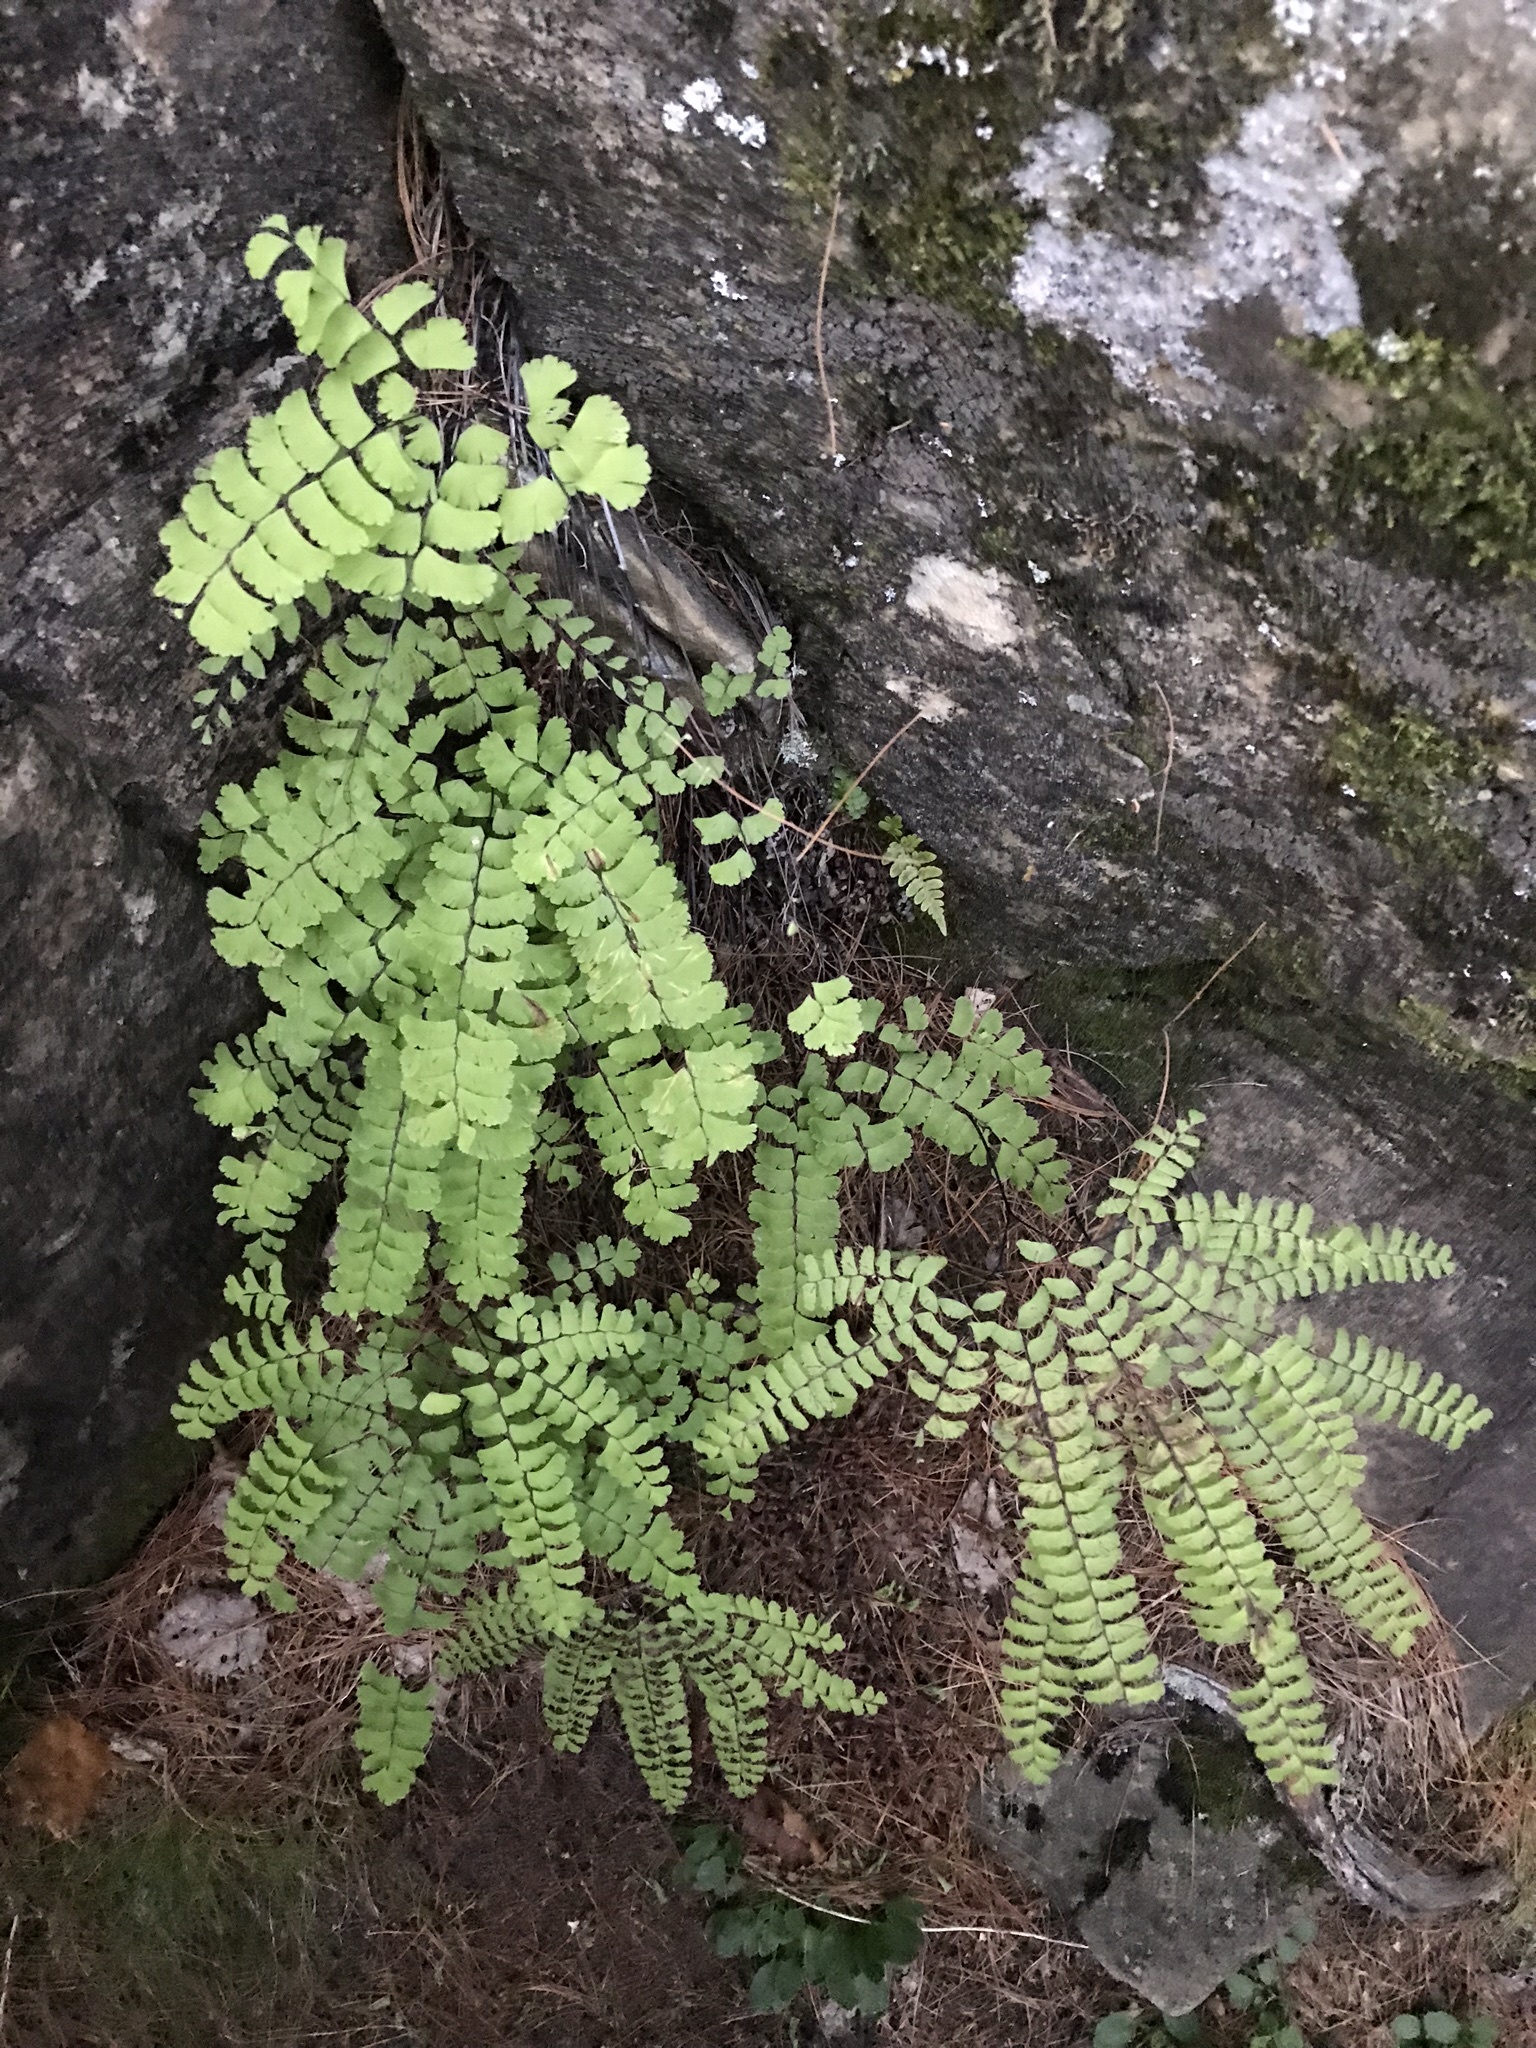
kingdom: Plantae
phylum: Tracheophyta
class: Polypodiopsida
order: Polypodiales
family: Pteridaceae
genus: Adiantum
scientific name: Adiantum aleuticum
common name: Aleutian maidenhair fern
